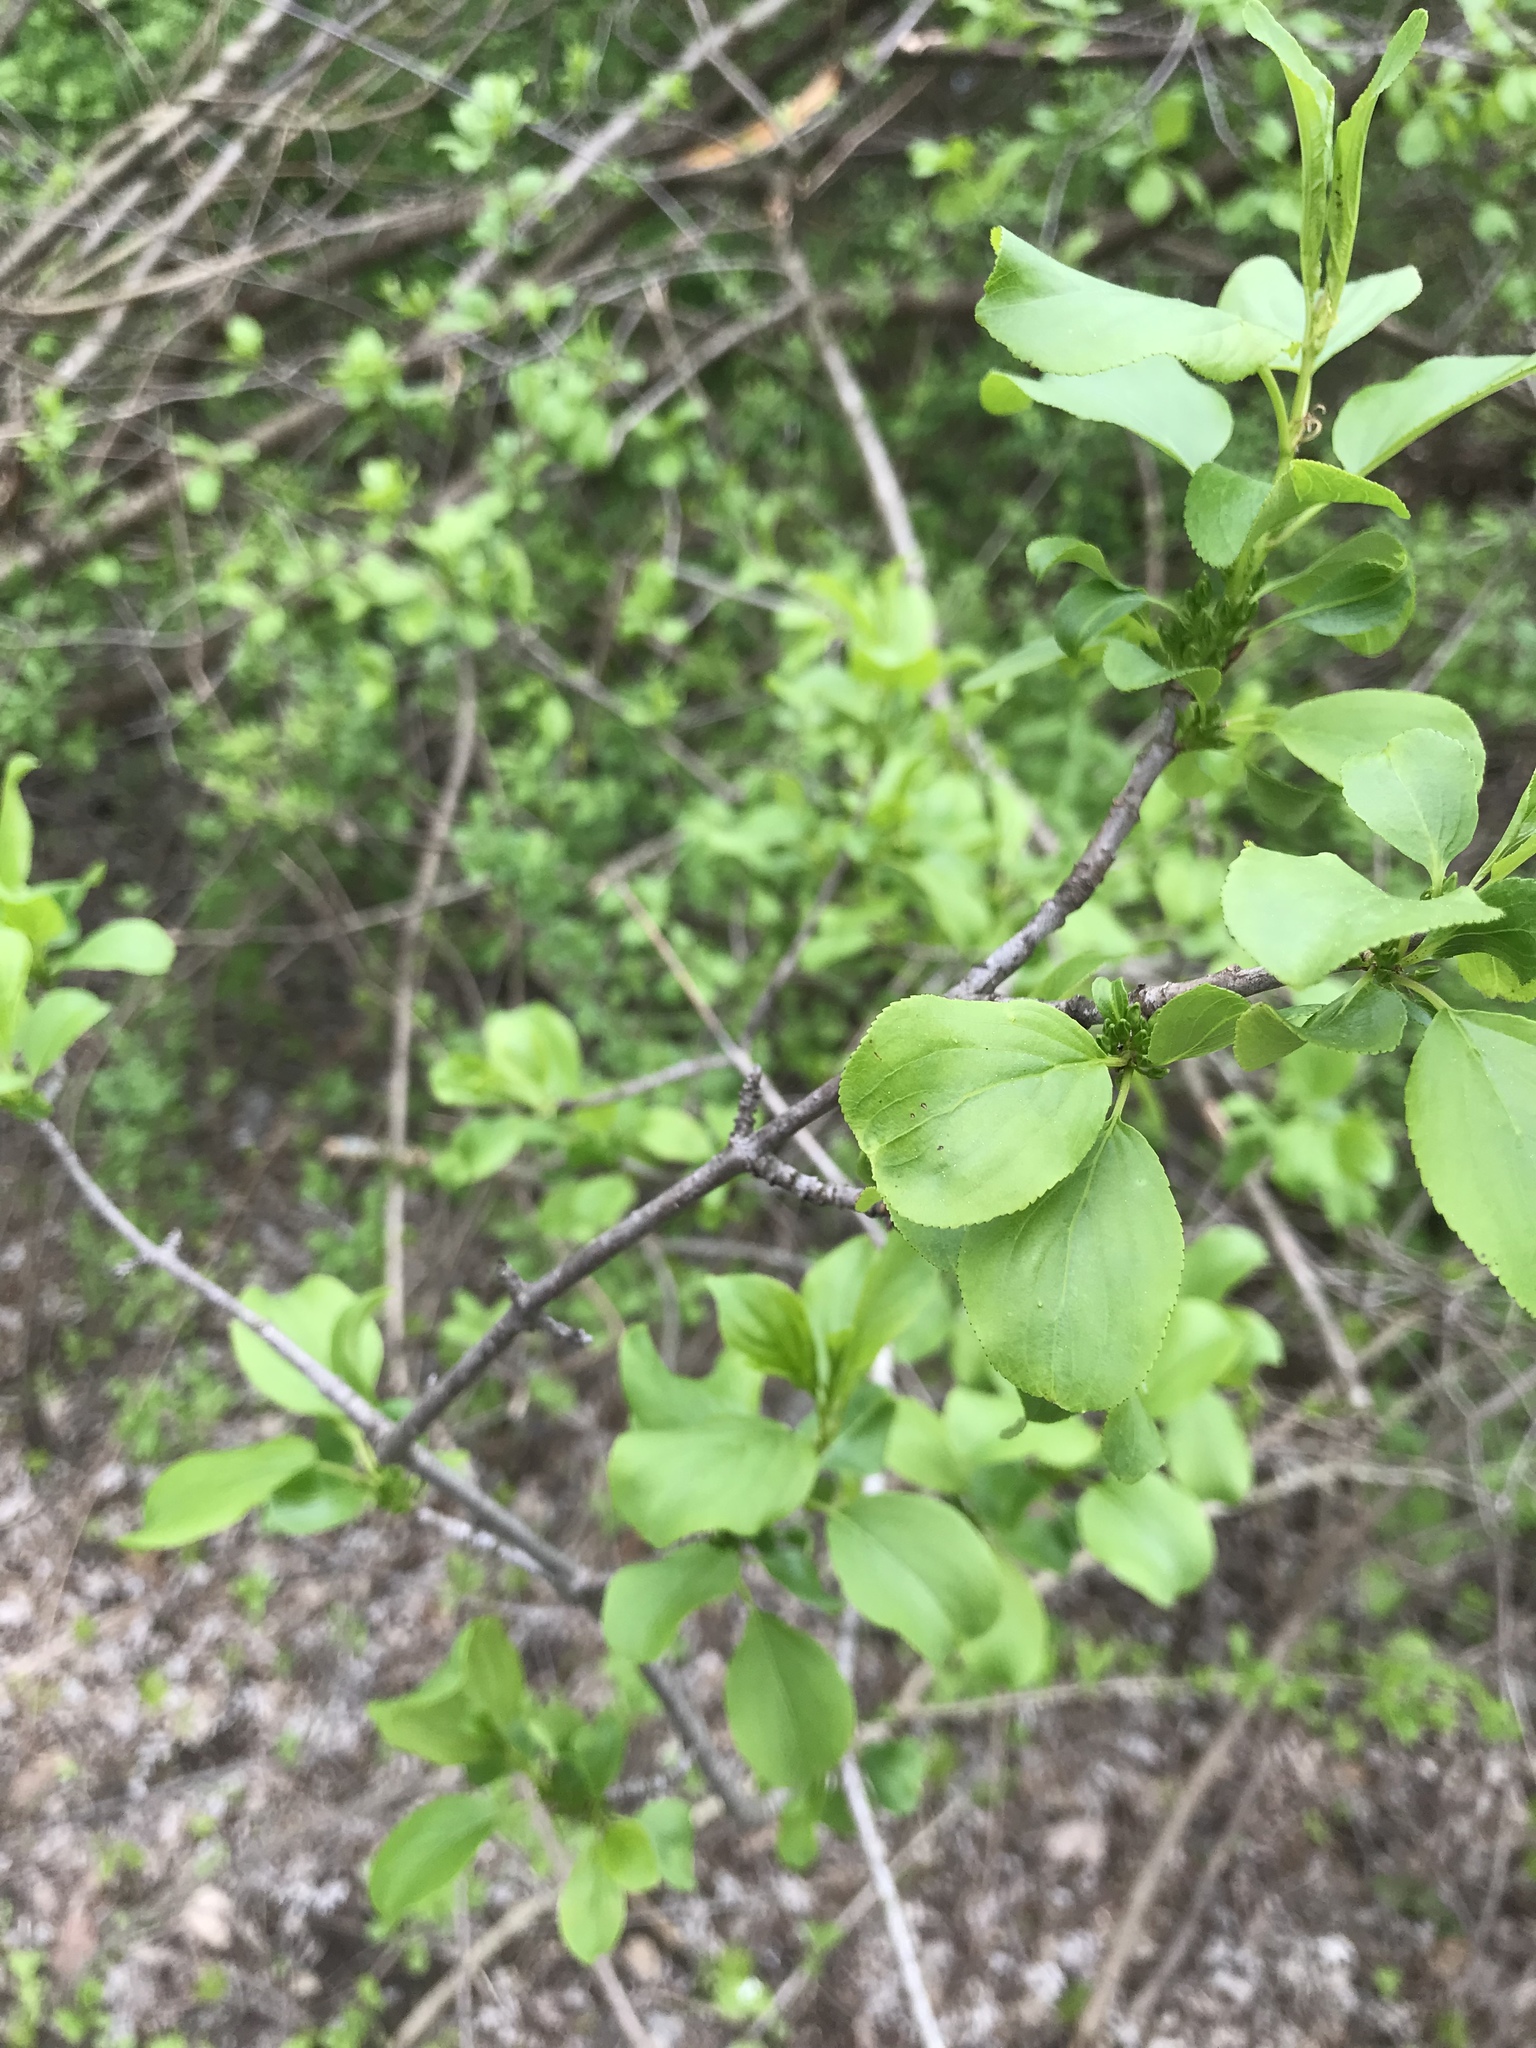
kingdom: Plantae
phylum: Tracheophyta
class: Magnoliopsida
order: Rosales
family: Rhamnaceae
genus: Rhamnus
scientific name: Rhamnus cathartica
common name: Common buckthorn
